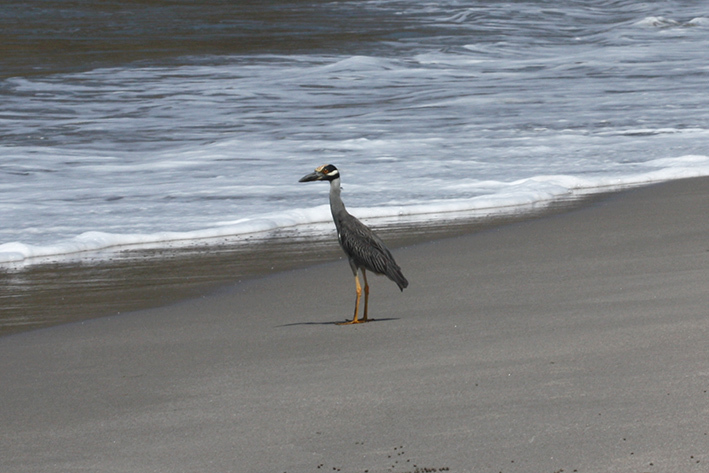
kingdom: Animalia
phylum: Chordata
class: Aves
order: Pelecaniformes
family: Ardeidae
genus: Nyctanassa
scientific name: Nyctanassa violacea
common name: Yellow-crowned night heron
